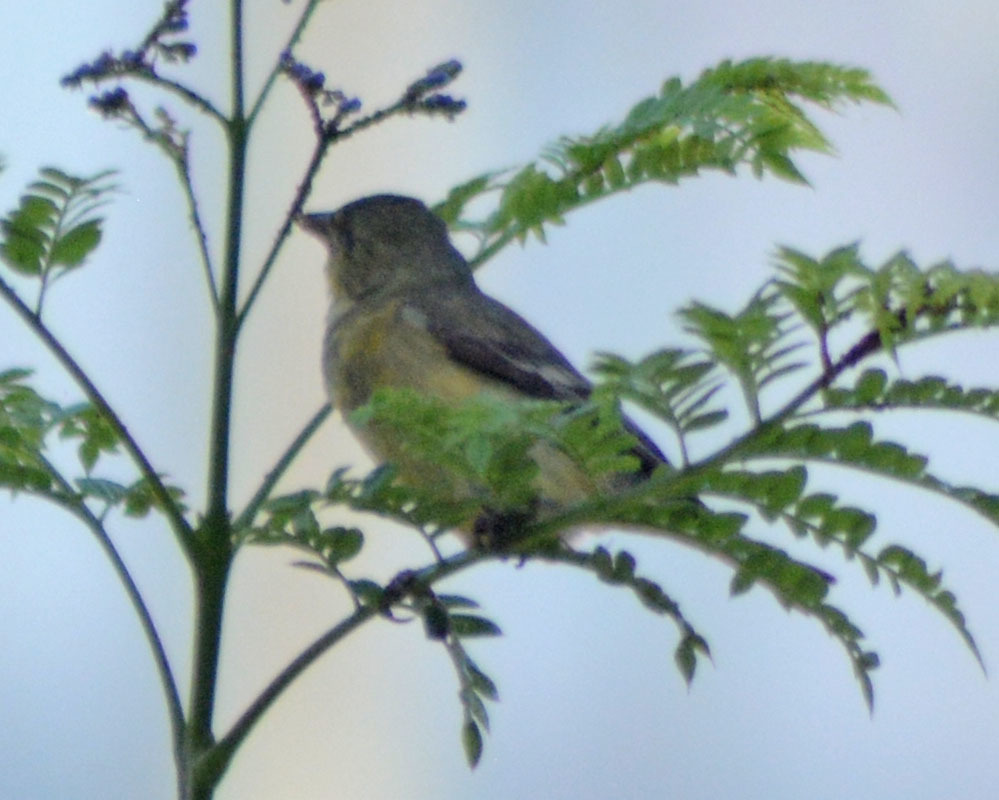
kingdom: Animalia
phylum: Chordata
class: Aves
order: Passeriformes
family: Fringillidae
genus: Spinus
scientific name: Spinus psaltria
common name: Lesser goldfinch
